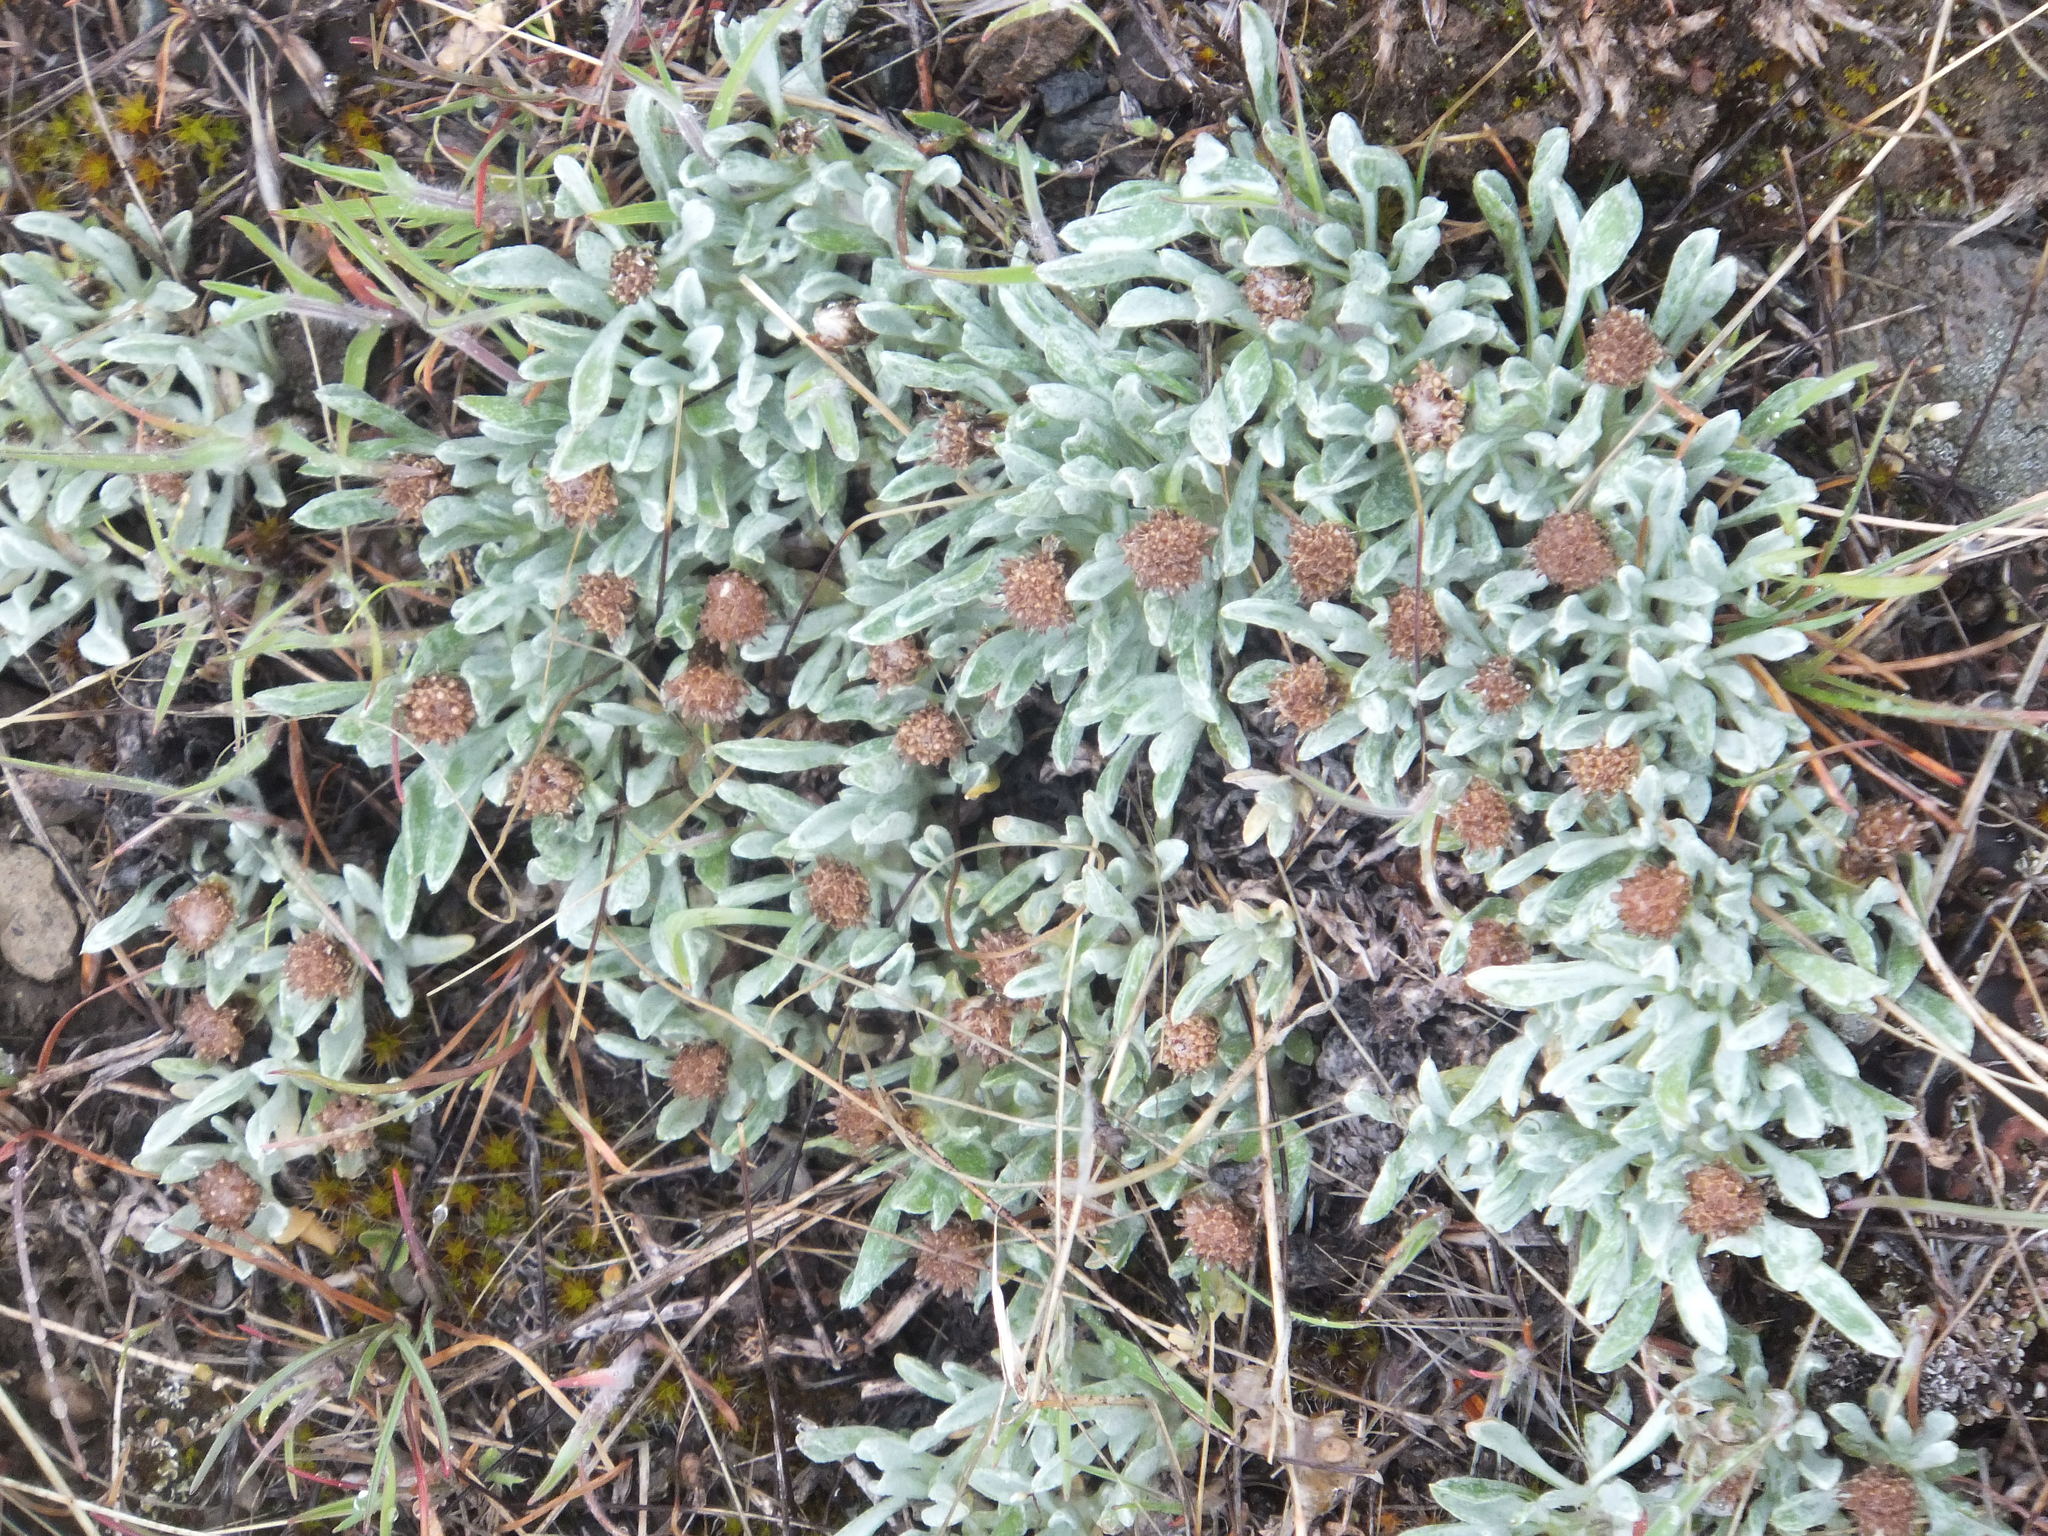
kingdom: Plantae
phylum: Tracheophyta
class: Magnoliopsida
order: Asterales
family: Asteraceae
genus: Antennaria
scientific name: Antennaria dimorpha
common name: Cushion pussytoes
